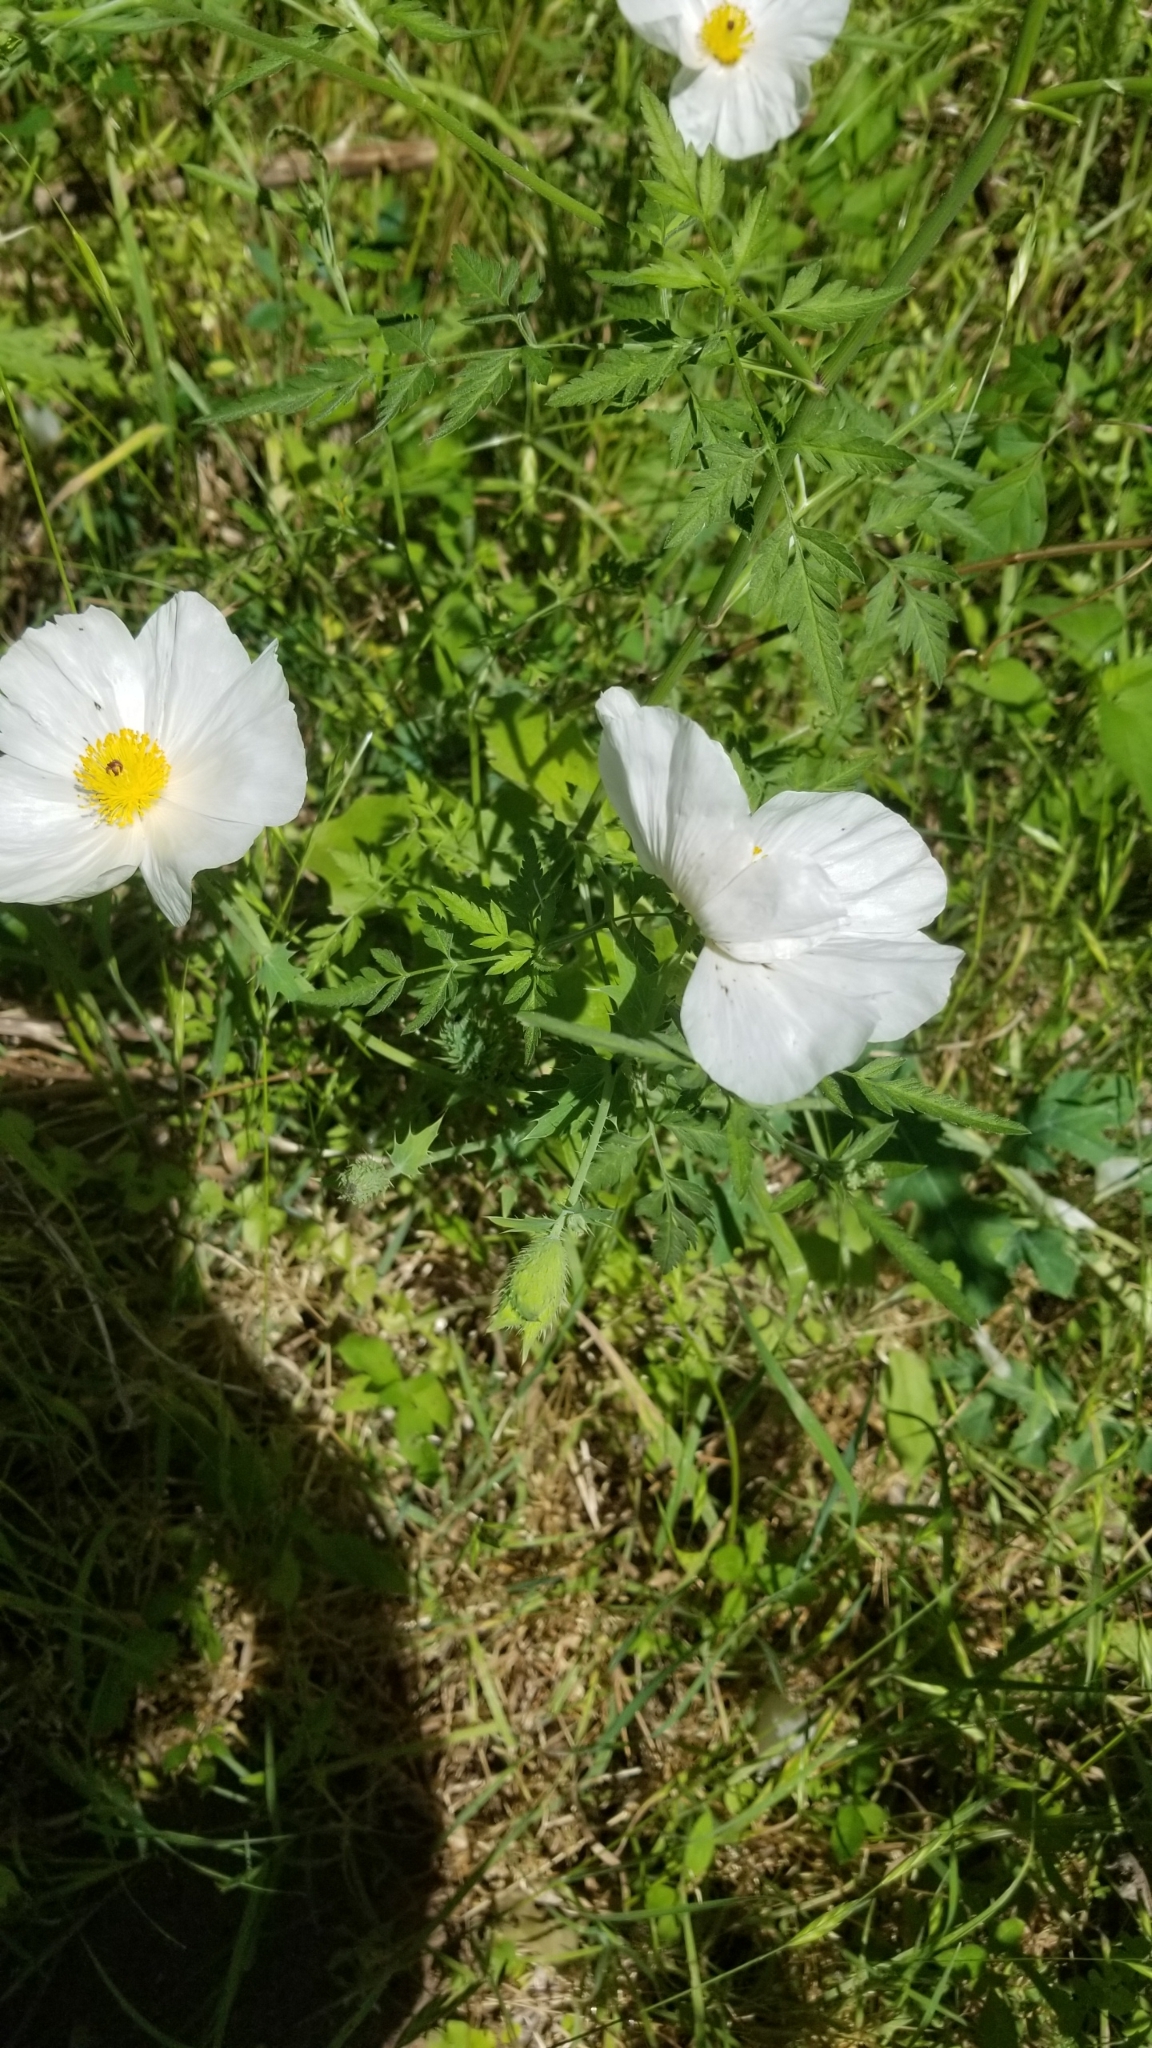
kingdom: Plantae
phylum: Tracheophyta
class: Magnoliopsida
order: Ranunculales
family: Papaveraceae
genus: Argemone
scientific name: Argemone albiflora
